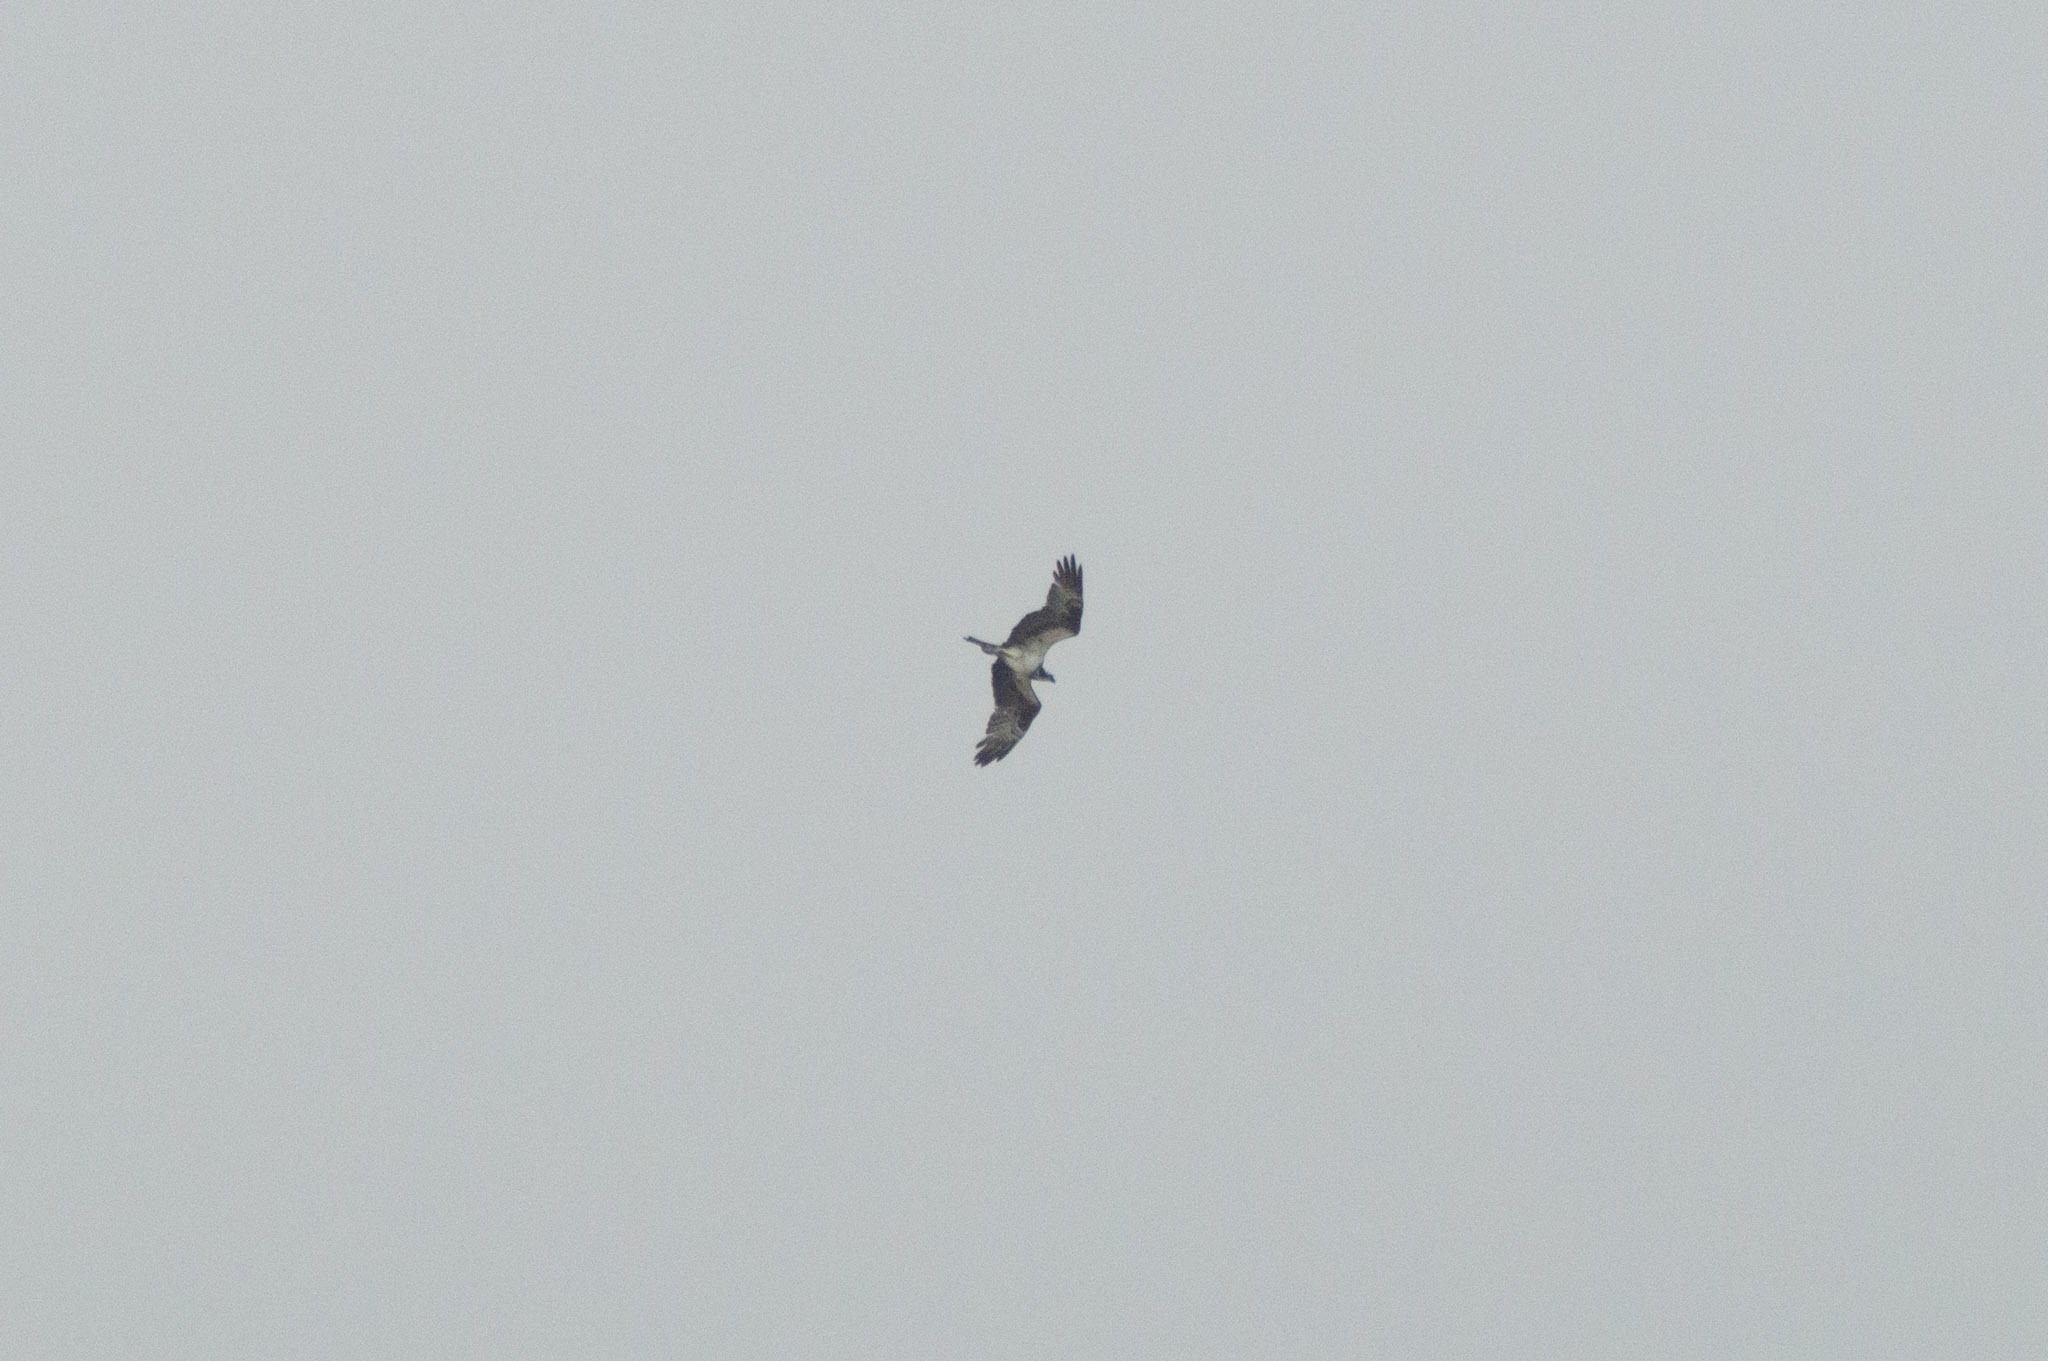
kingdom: Animalia
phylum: Chordata
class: Aves
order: Accipitriformes
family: Pandionidae
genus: Pandion
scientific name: Pandion haliaetus
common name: Osprey
